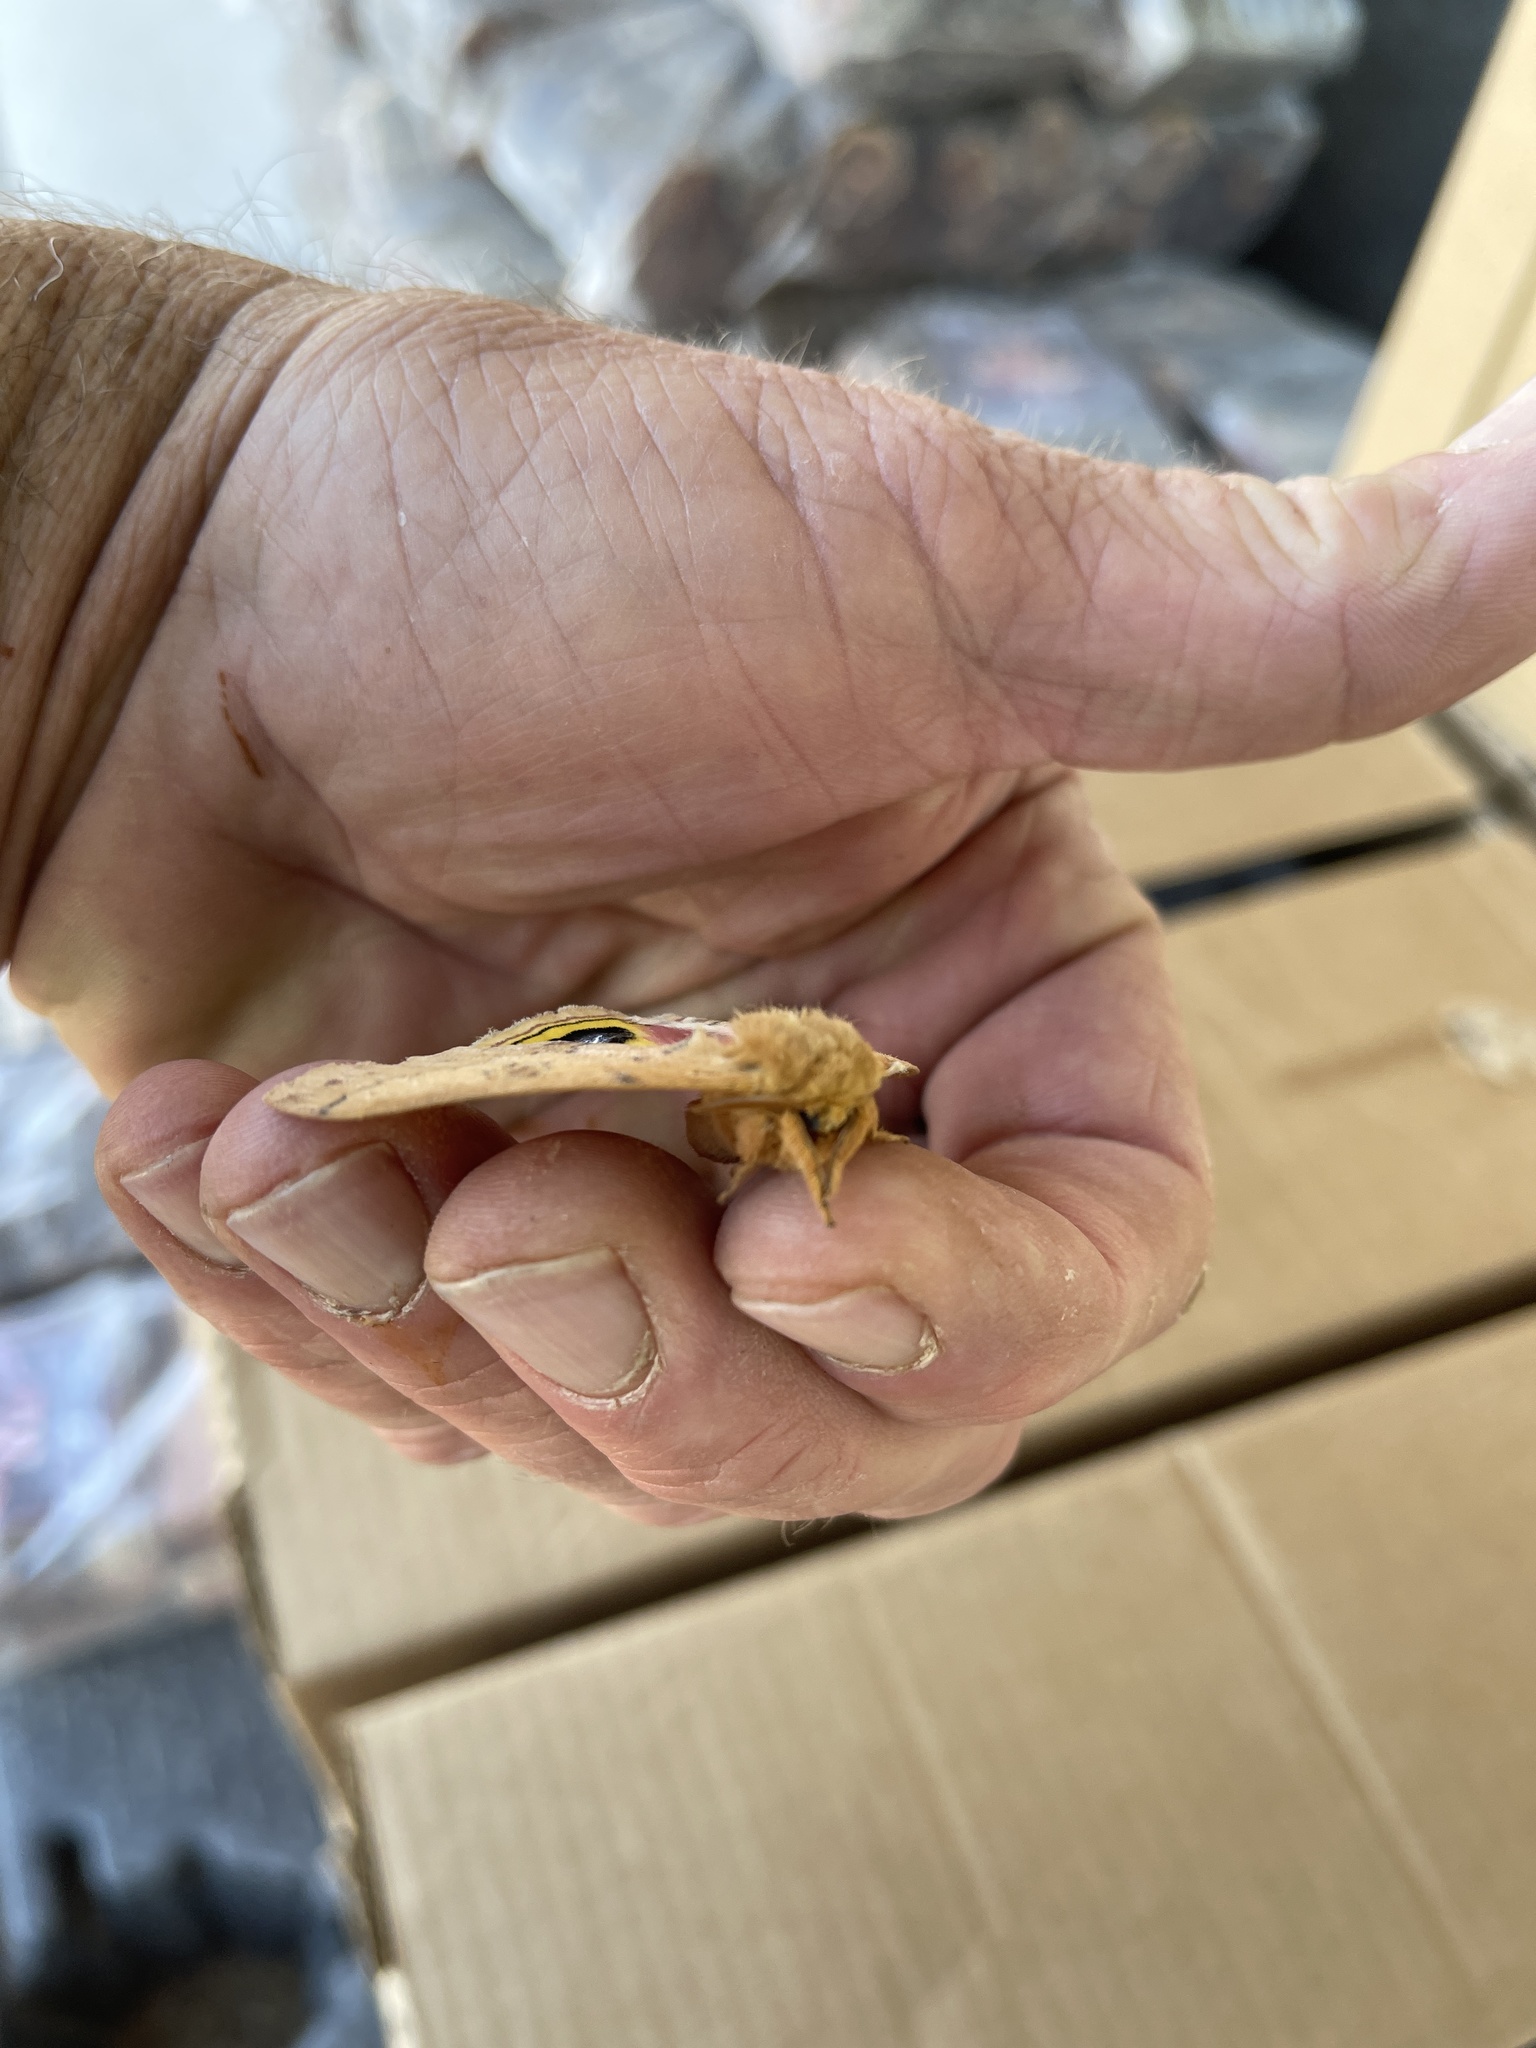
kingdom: Animalia
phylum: Arthropoda
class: Insecta
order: Lepidoptera
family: Saturniidae
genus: Automeris
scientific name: Automeris io
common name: Io moth
